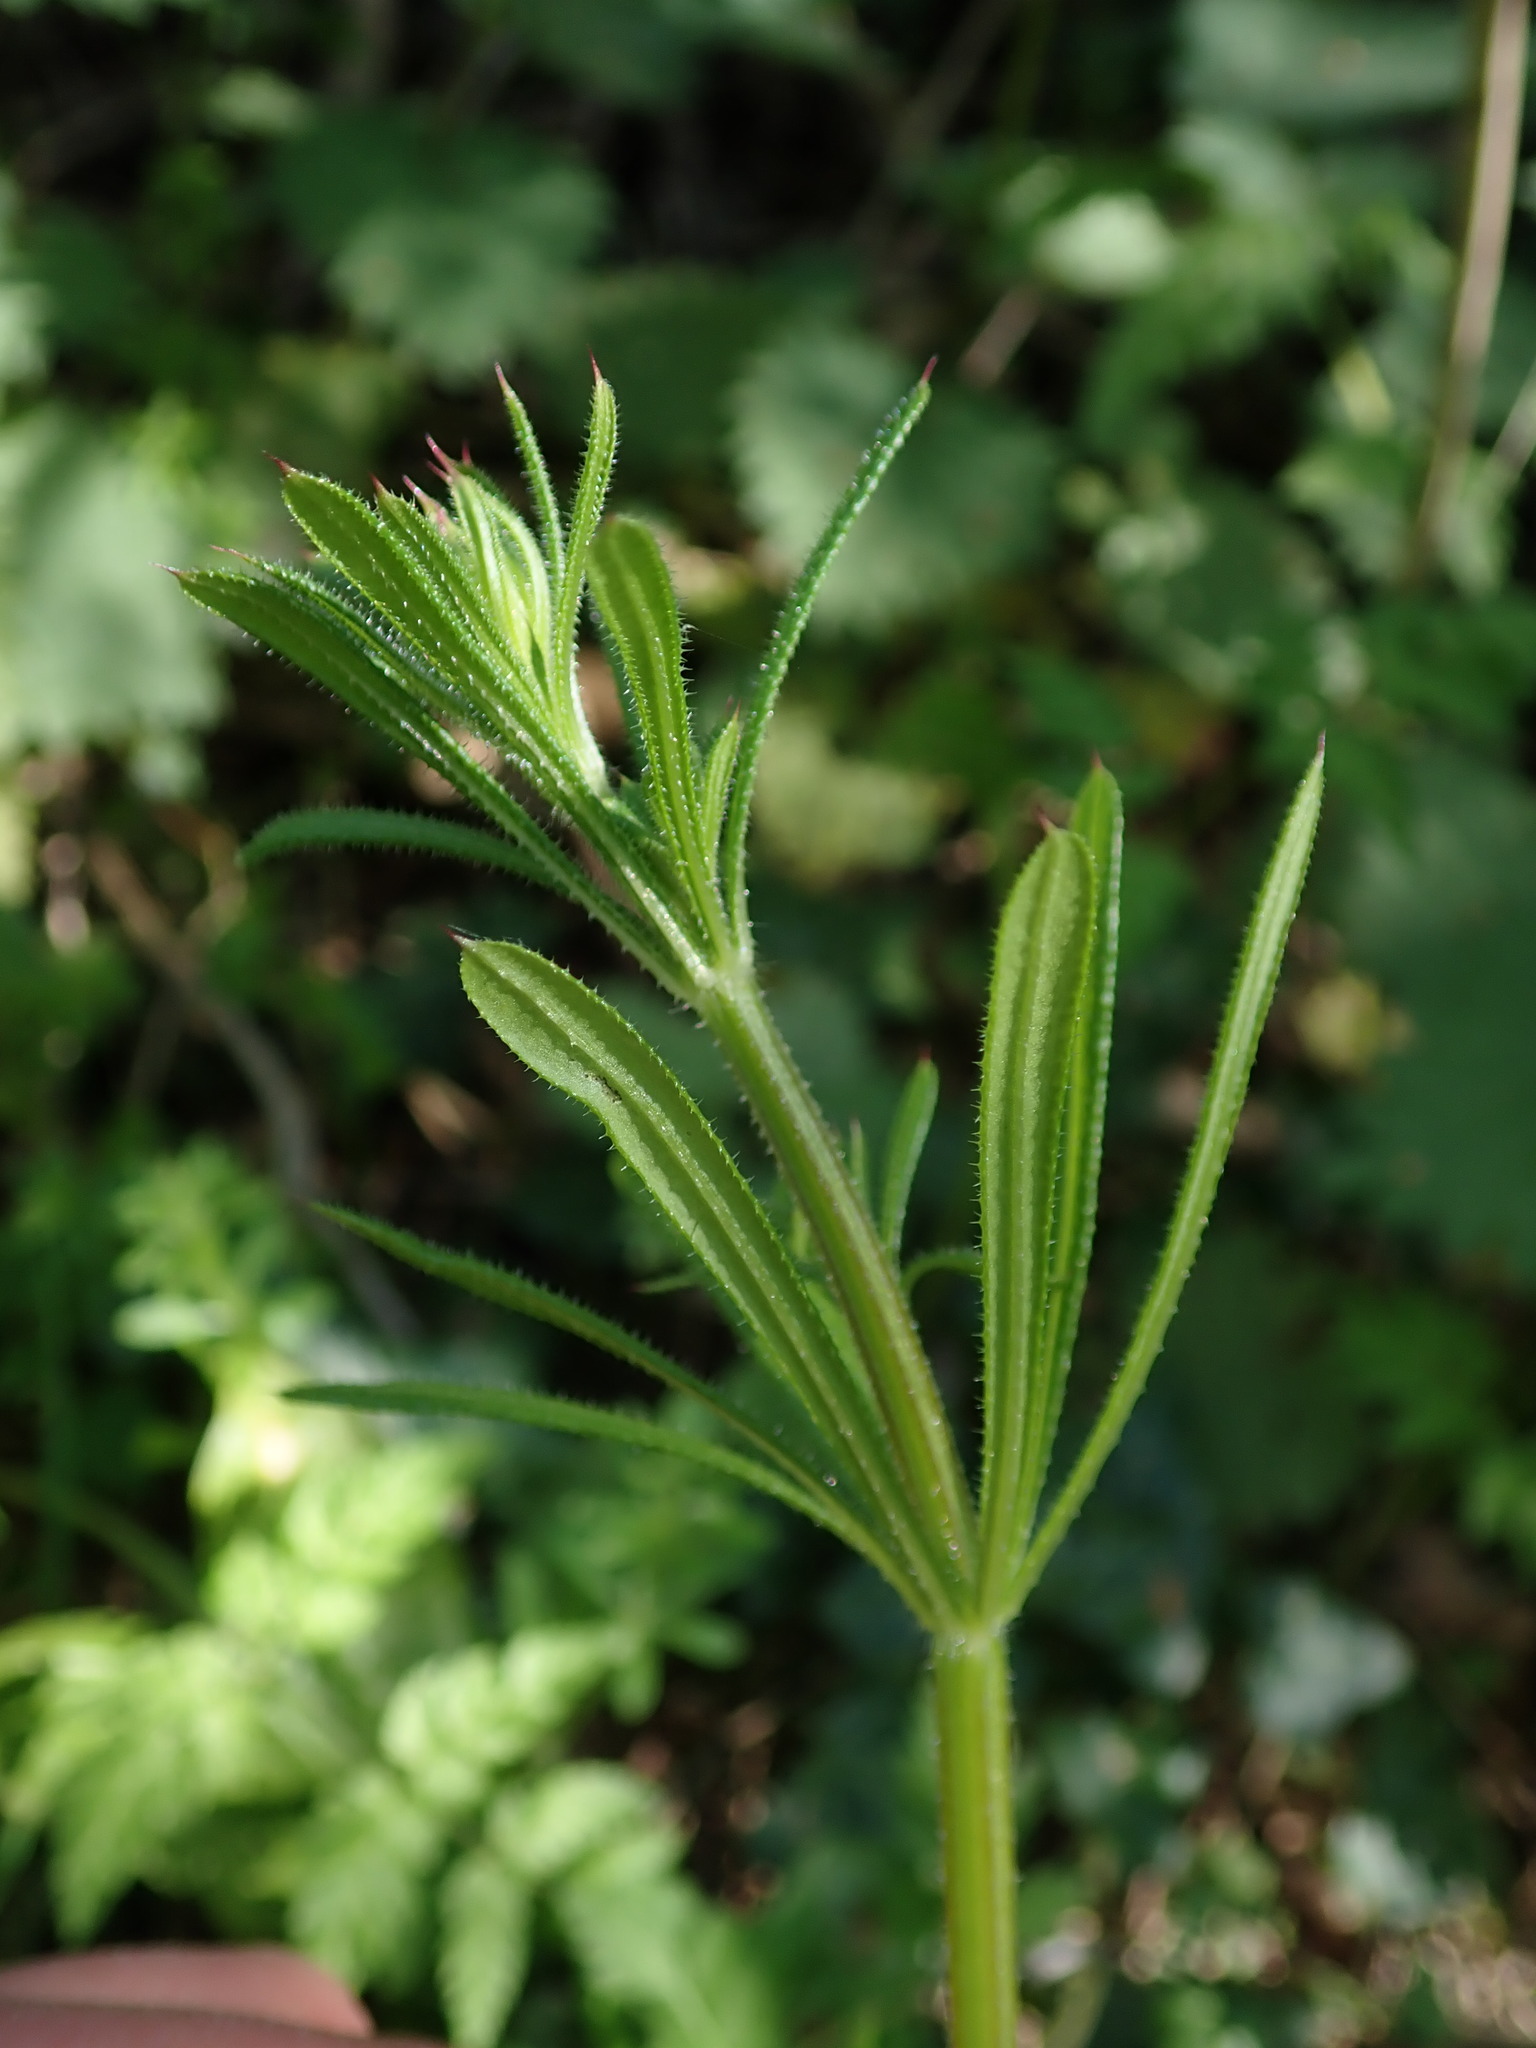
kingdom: Plantae
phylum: Tracheophyta
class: Magnoliopsida
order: Gentianales
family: Rubiaceae
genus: Galium
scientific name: Galium aparine
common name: Cleavers
